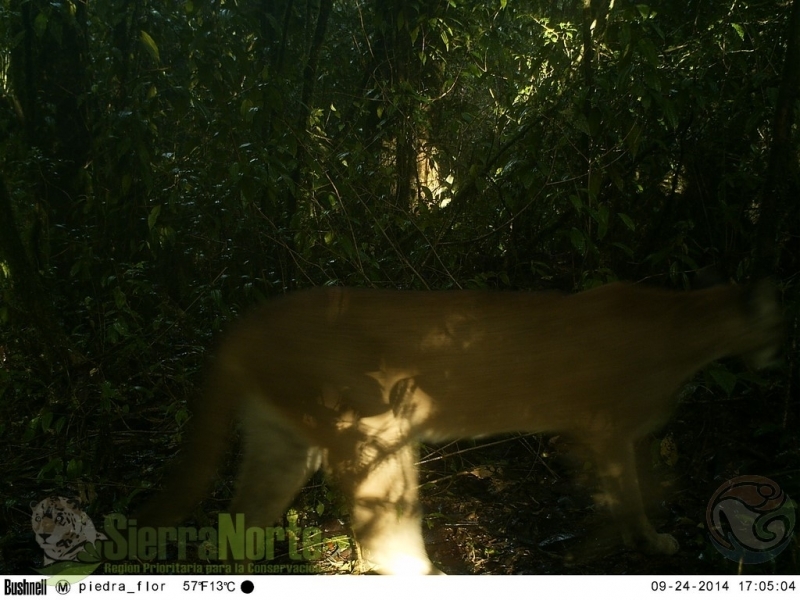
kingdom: Animalia
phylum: Chordata
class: Mammalia
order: Carnivora
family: Felidae
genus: Puma
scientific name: Puma concolor
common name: Puma
